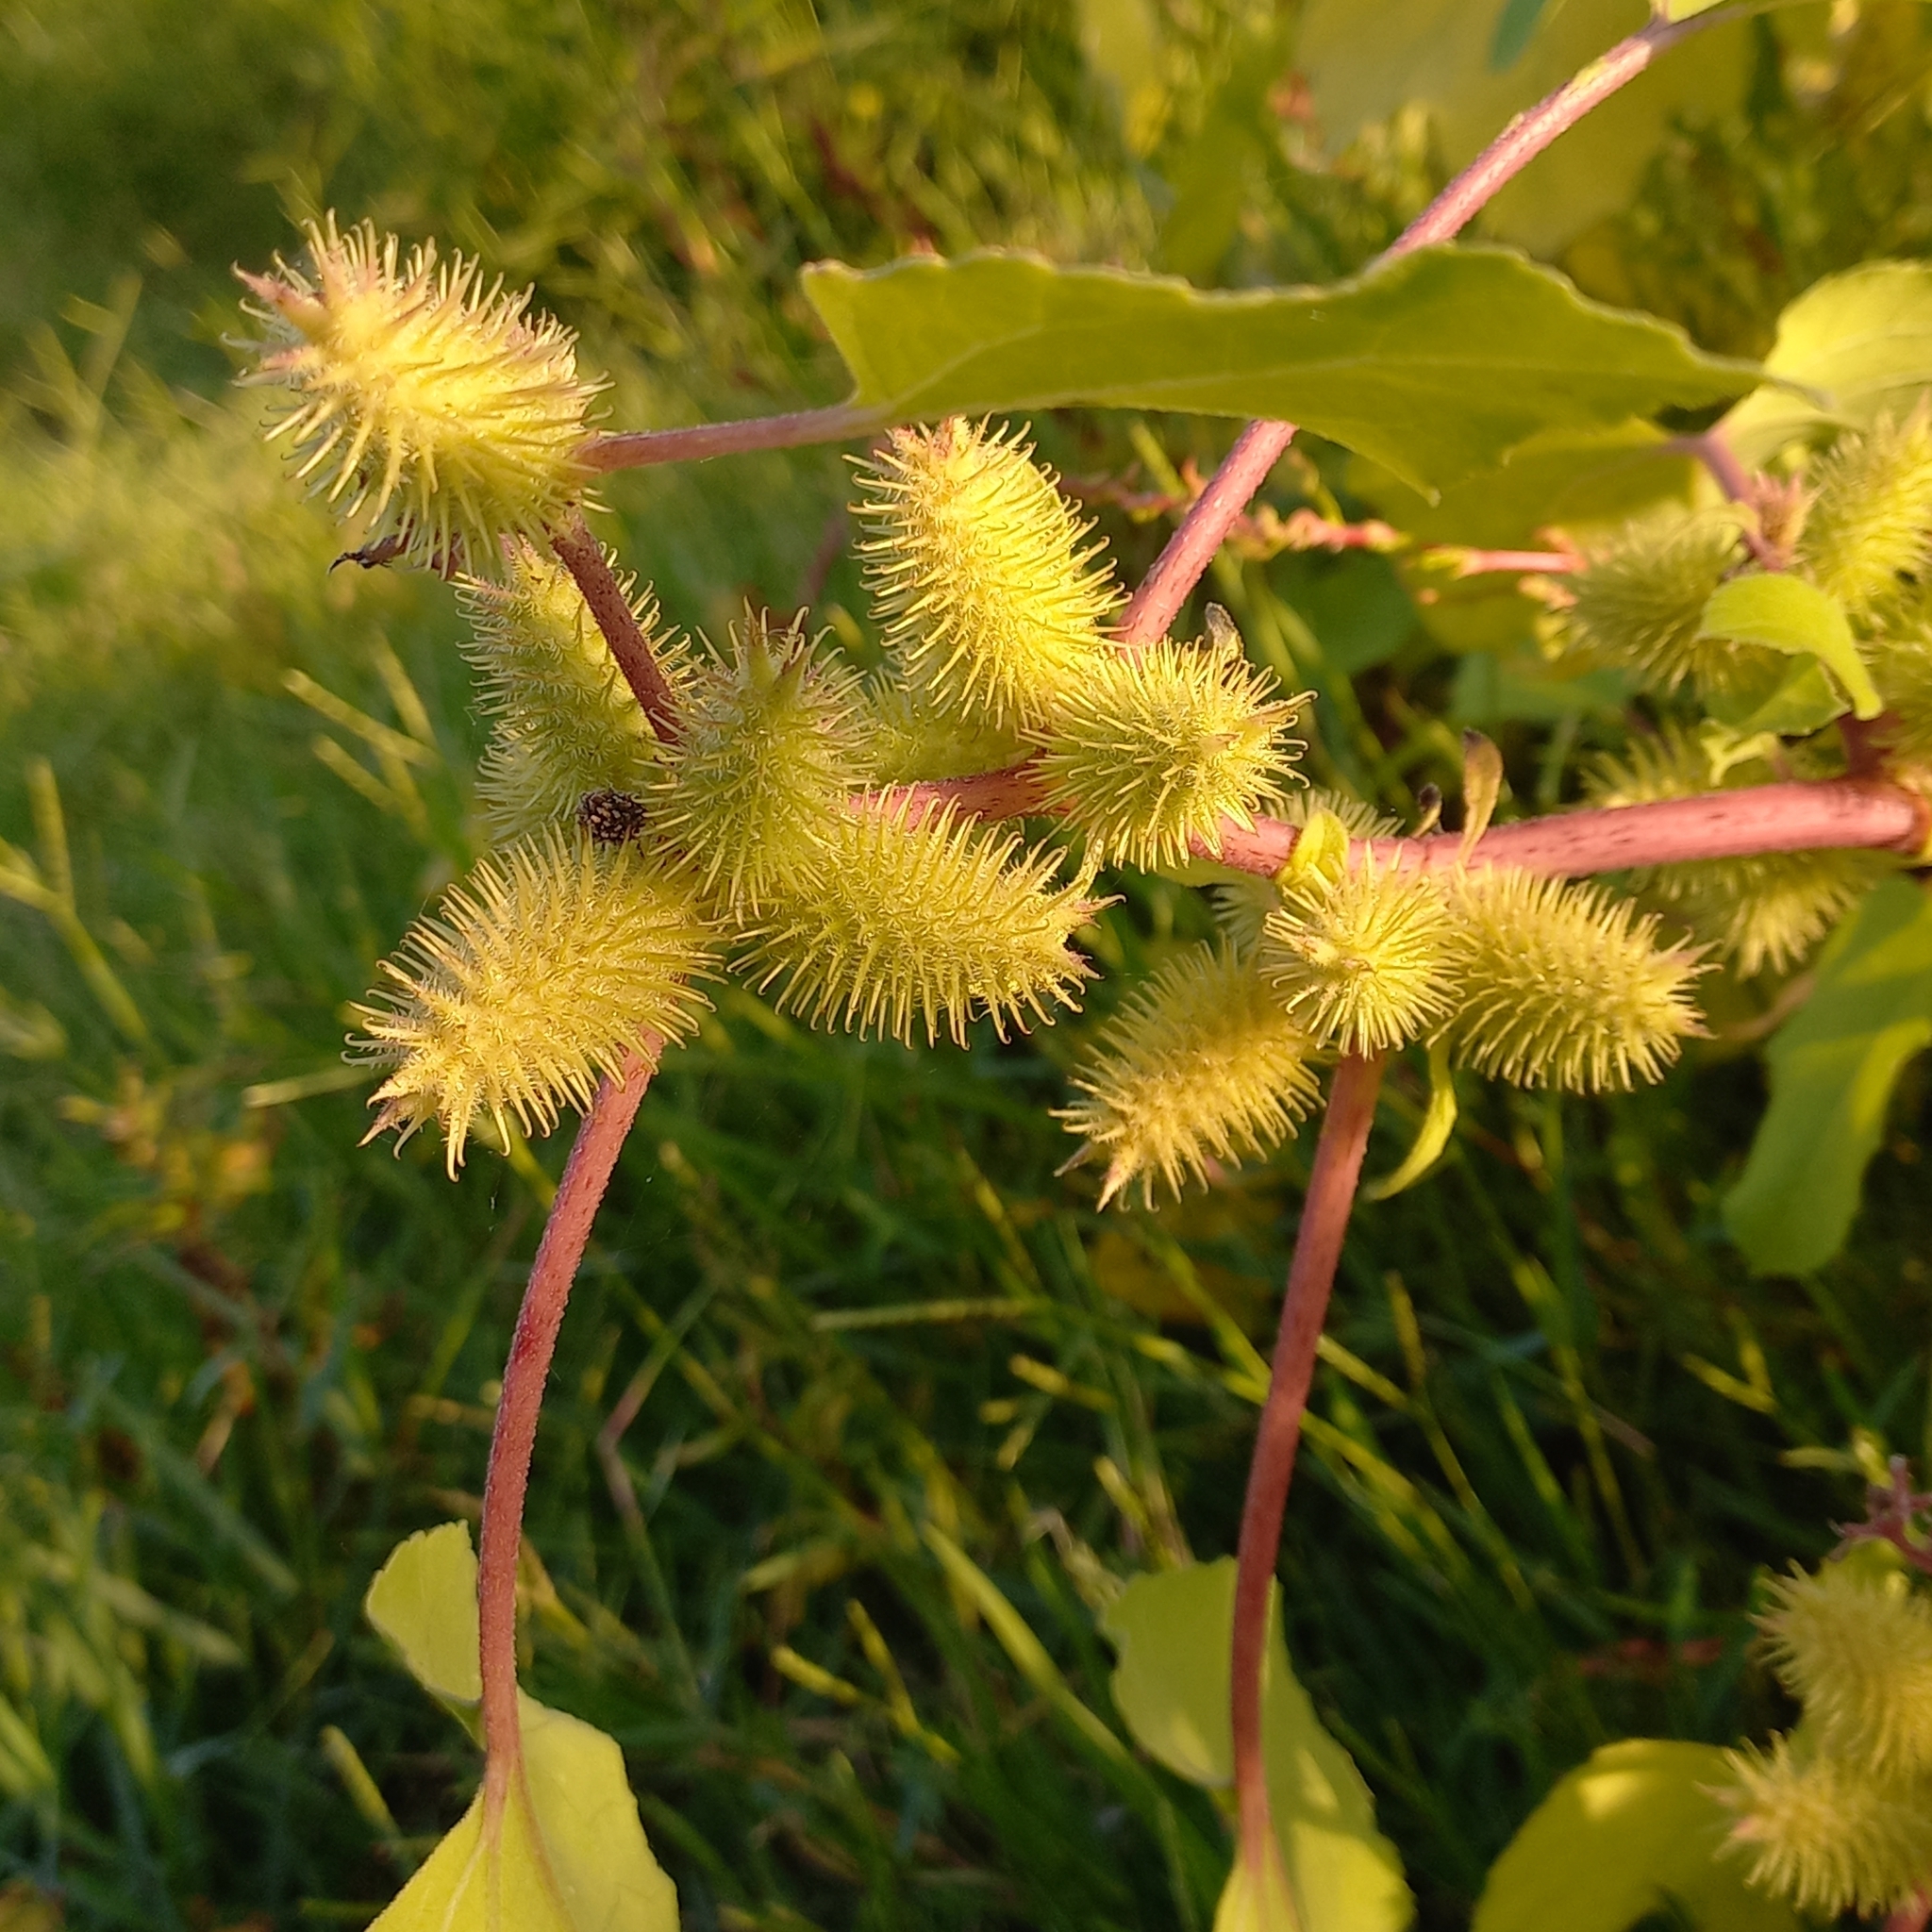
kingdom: Plantae
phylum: Tracheophyta
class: Magnoliopsida
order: Asterales
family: Asteraceae
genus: Xanthium
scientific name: Xanthium strumarium
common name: Rough cocklebur
